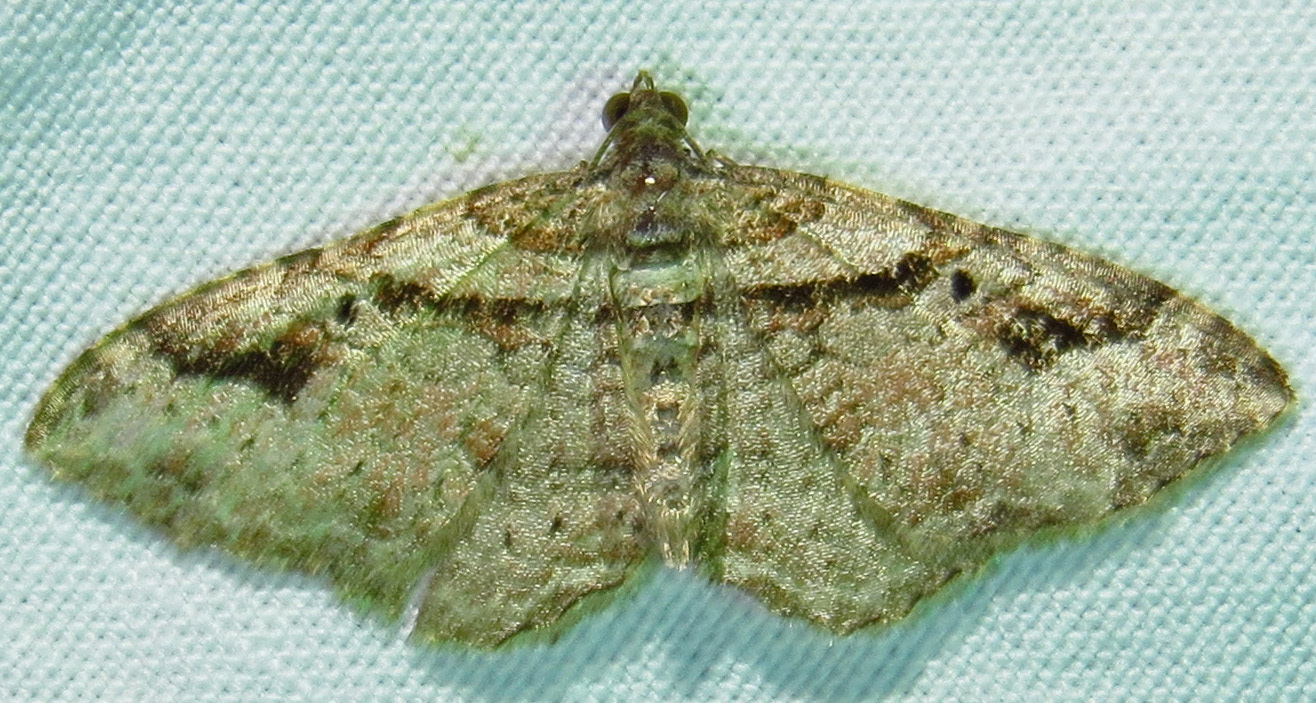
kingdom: Animalia
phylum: Arthropoda
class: Insecta
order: Lepidoptera
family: Geometridae
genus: Costaconvexa
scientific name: Costaconvexa centrostrigaria
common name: Bent-line carpet
